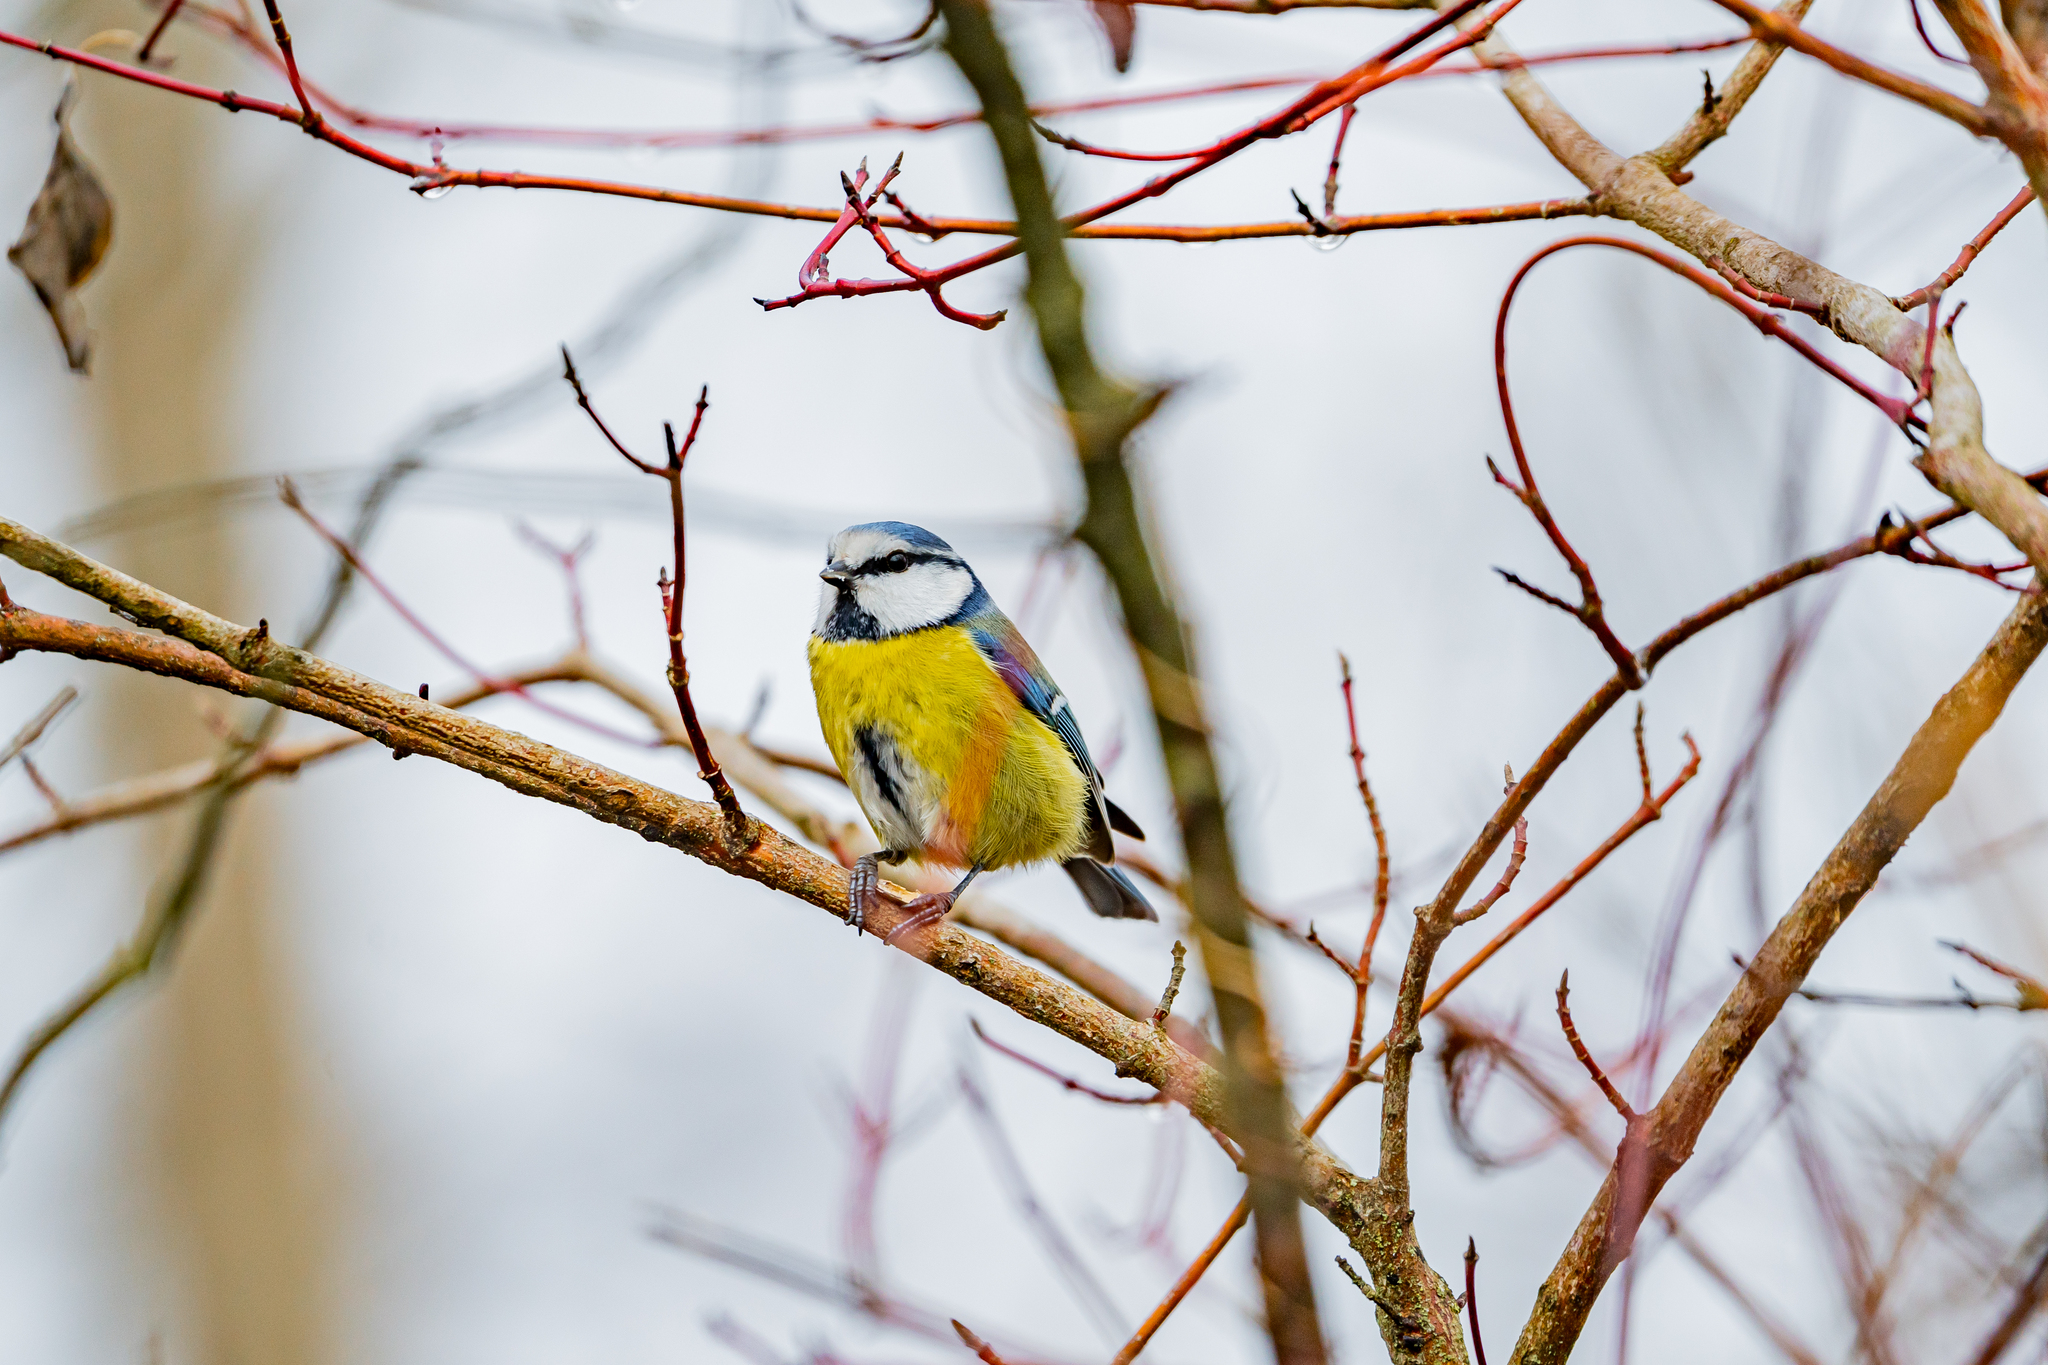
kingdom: Animalia
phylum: Chordata
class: Aves
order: Passeriformes
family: Paridae
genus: Cyanistes
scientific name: Cyanistes caeruleus
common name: Eurasian blue tit
